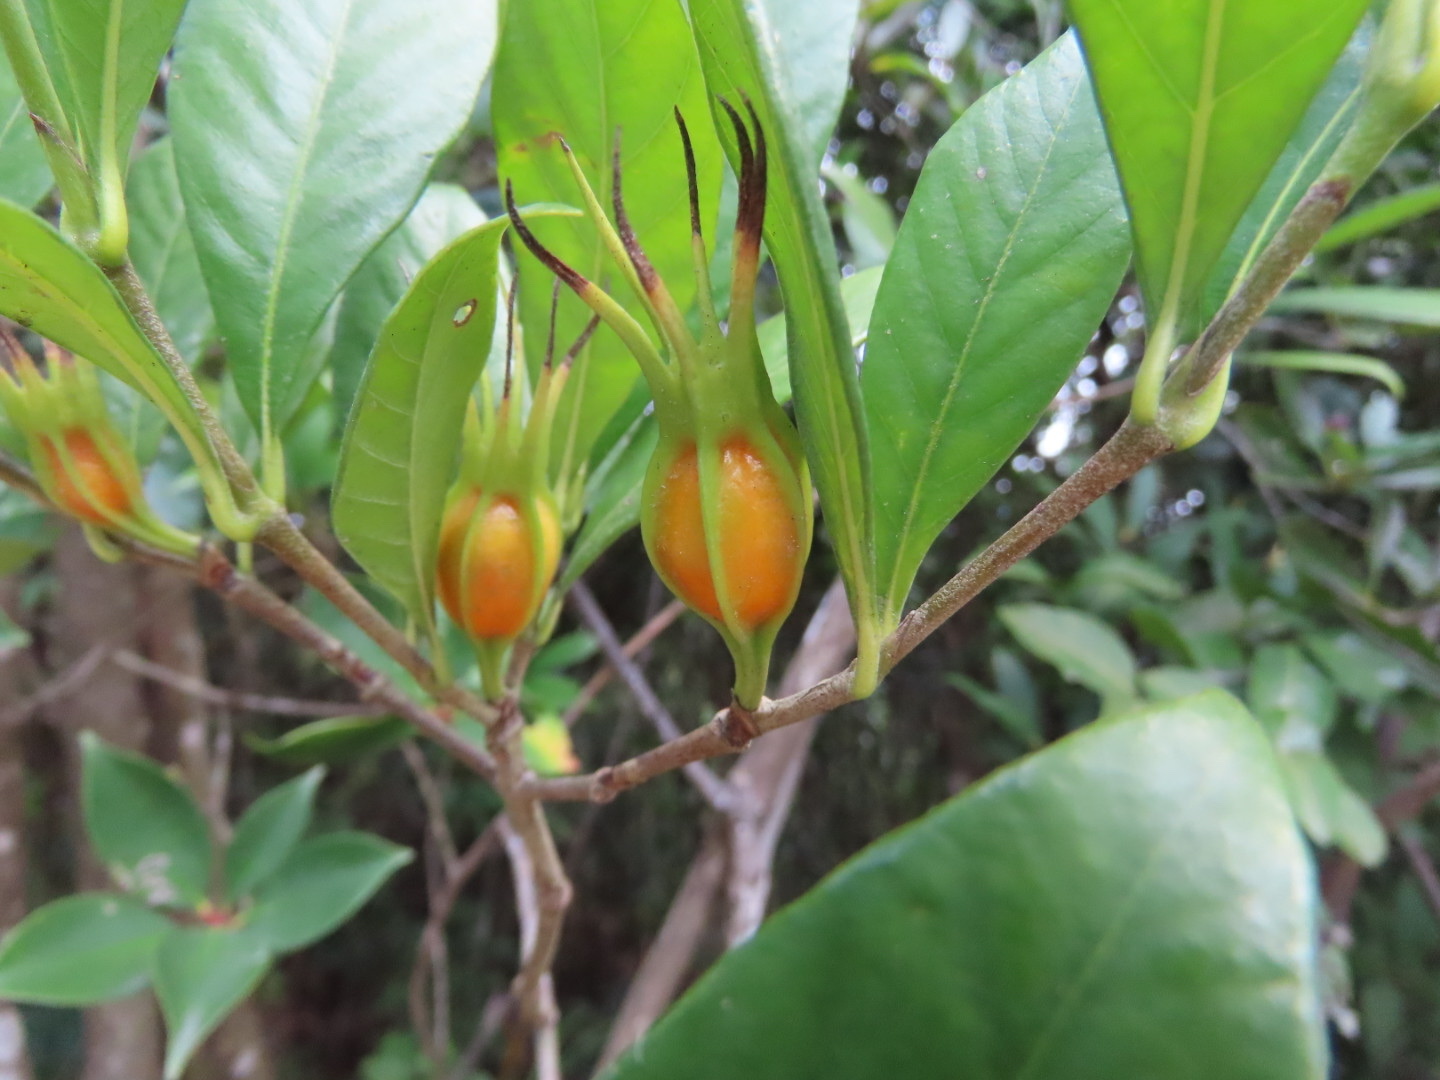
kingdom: Plantae
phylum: Tracheophyta
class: Magnoliopsida
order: Gentianales
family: Rubiaceae
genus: Gardenia
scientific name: Gardenia jasminoides
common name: Cape-jasmine
